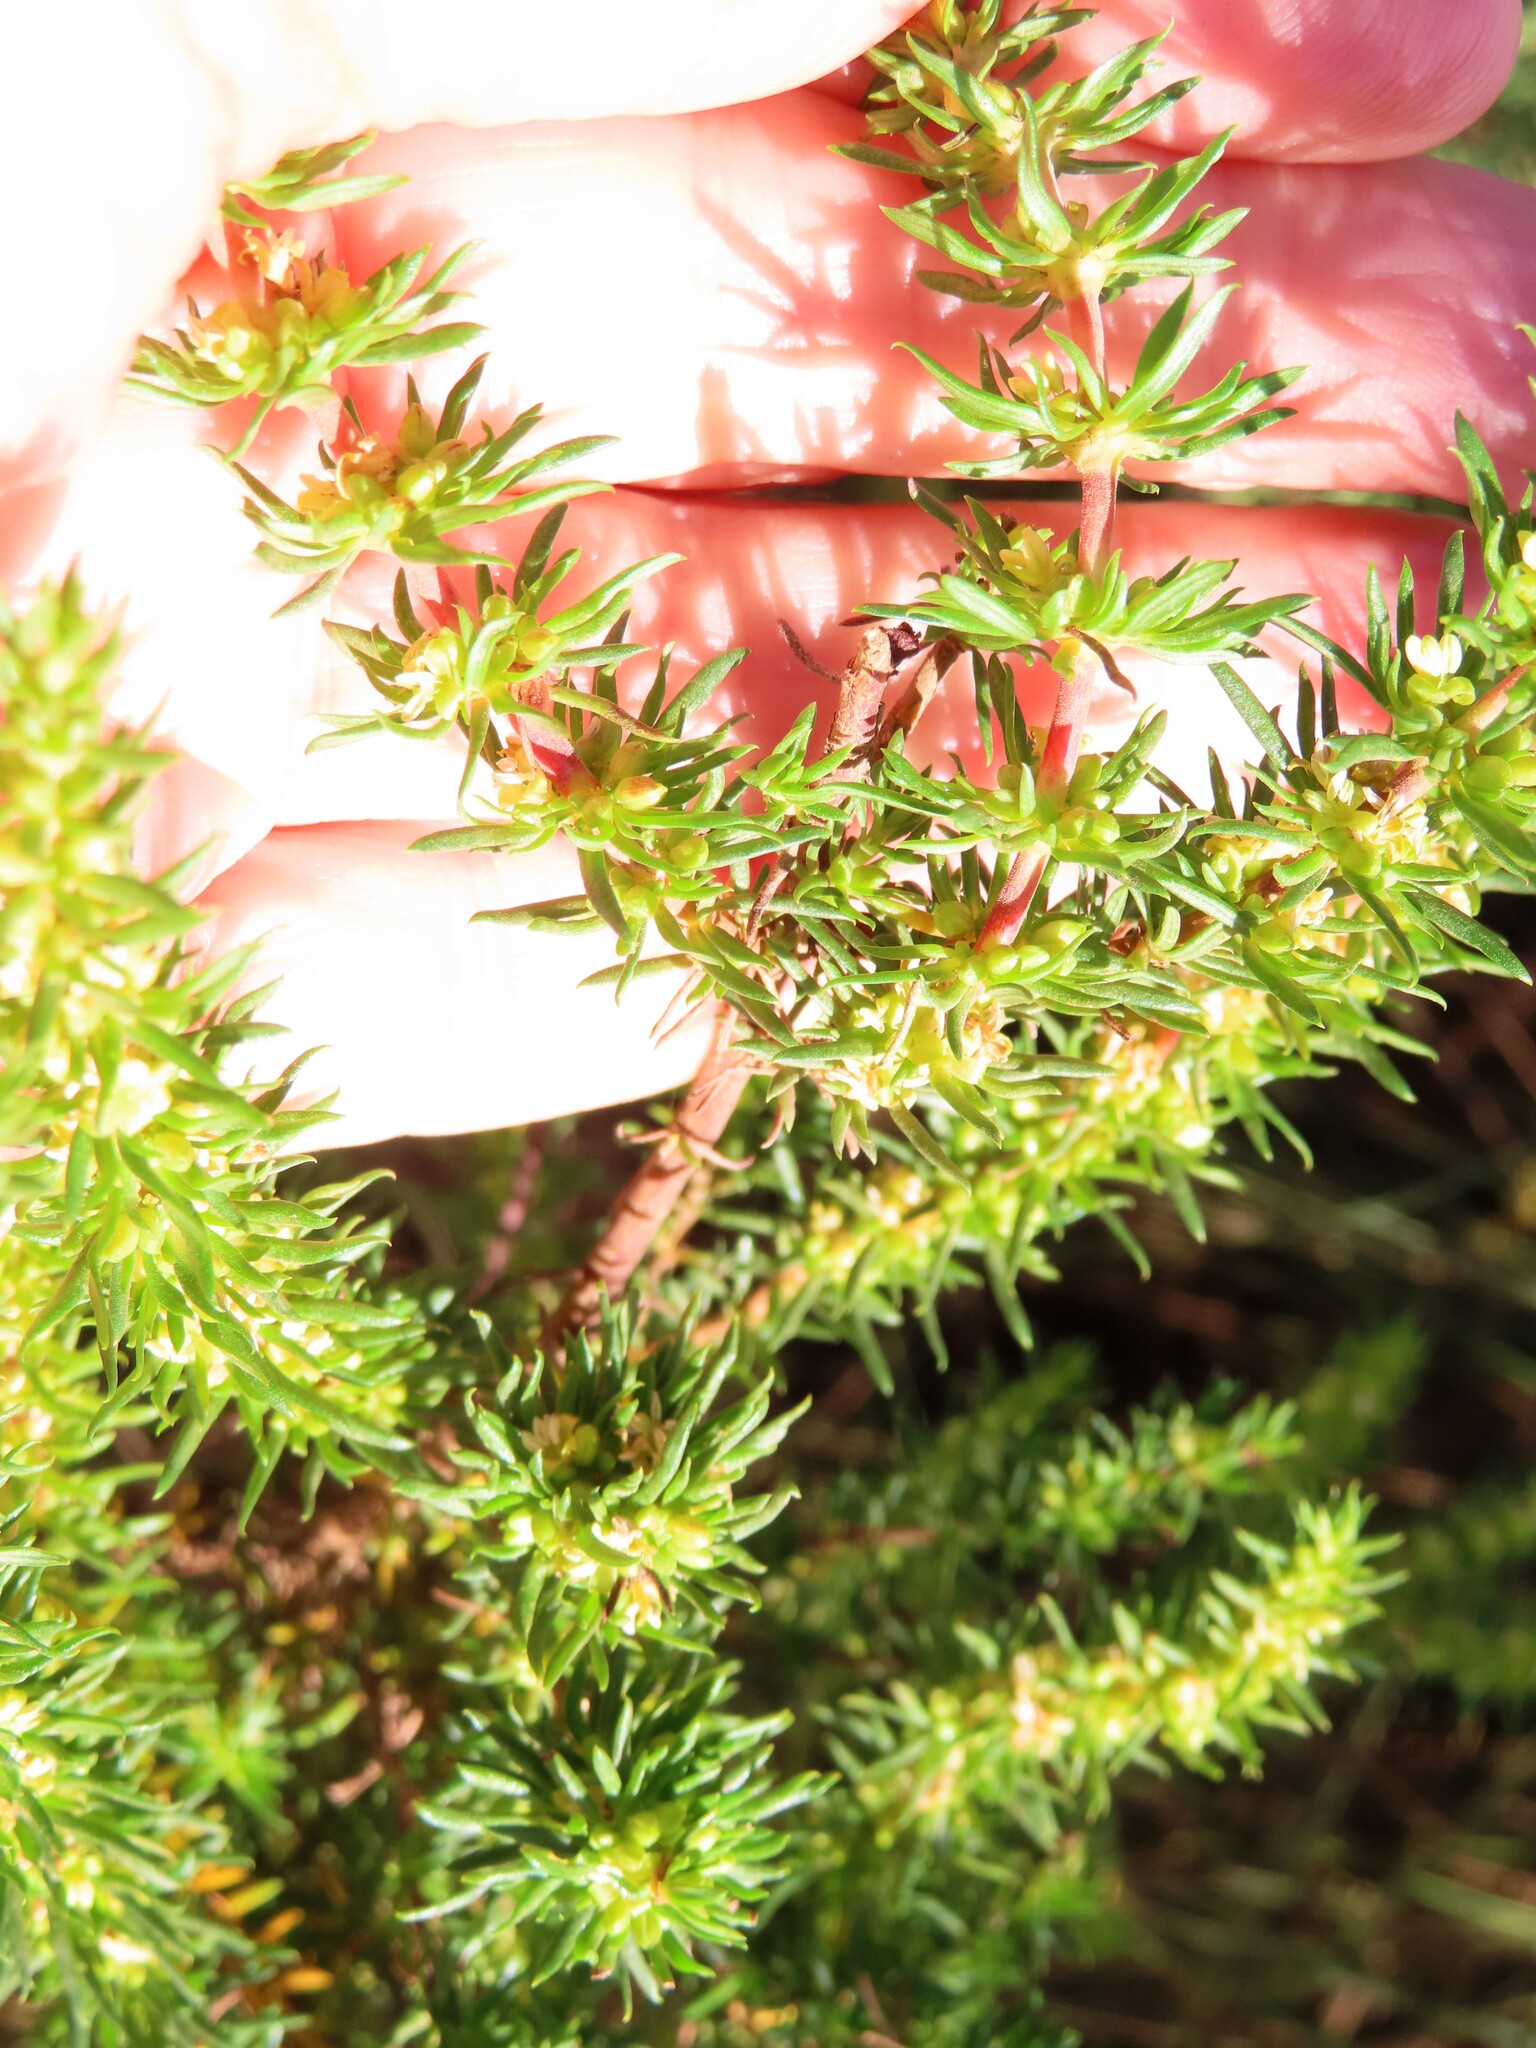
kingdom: Plantae
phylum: Tracheophyta
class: Magnoliopsida
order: Gentianales
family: Rubiaceae
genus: Anthospermum
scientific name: Anthospermum aethiopicum
